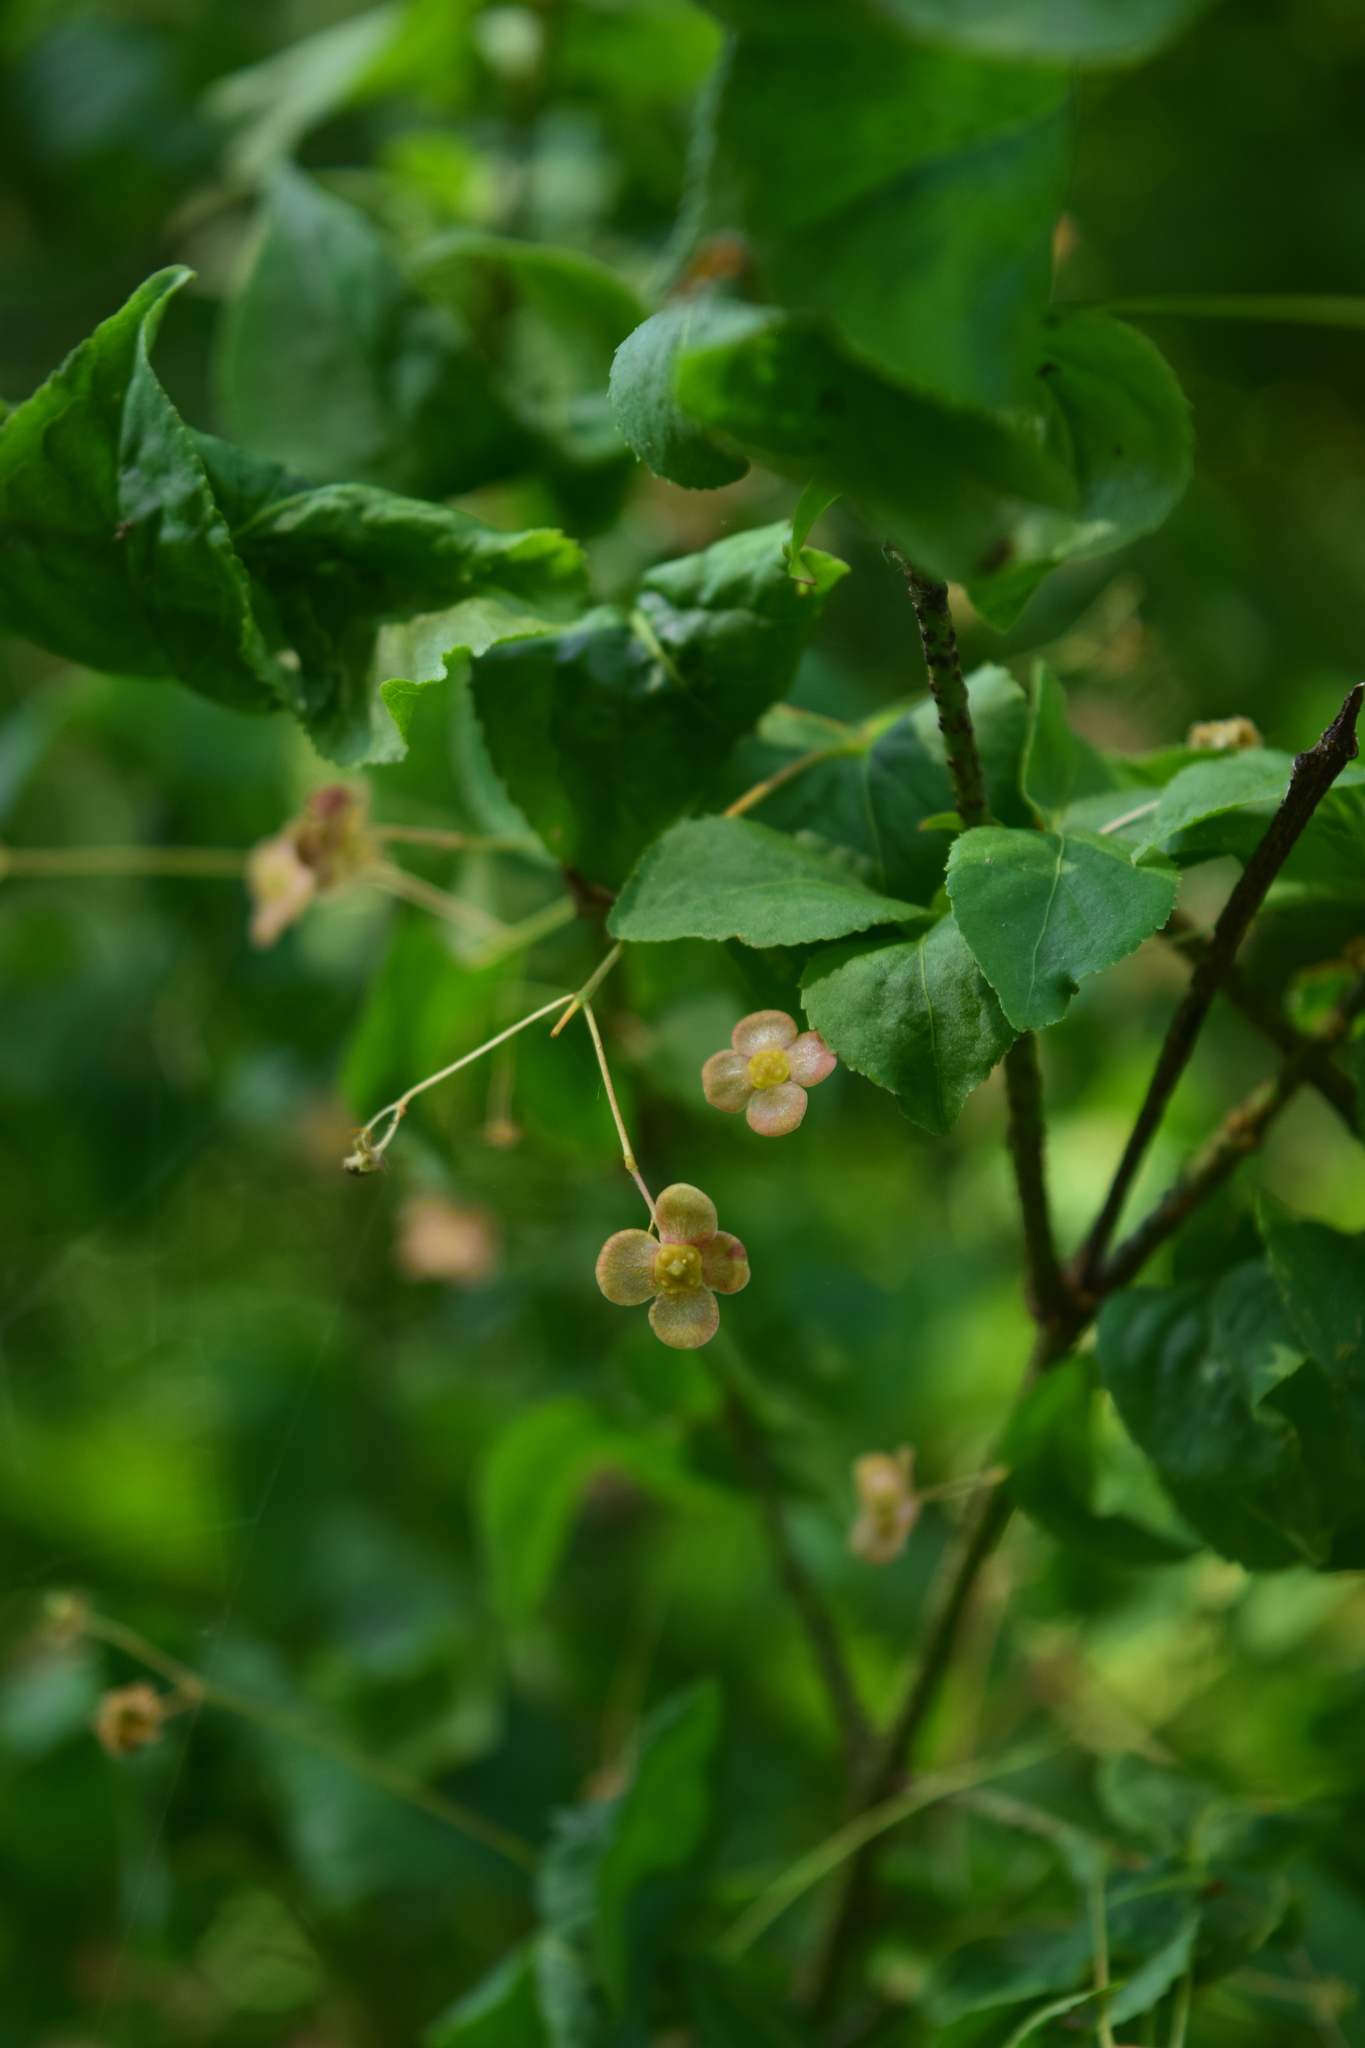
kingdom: Plantae
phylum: Tracheophyta
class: Magnoliopsida
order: Celastrales
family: Celastraceae
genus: Euonymus
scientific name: Euonymus verrucosus
